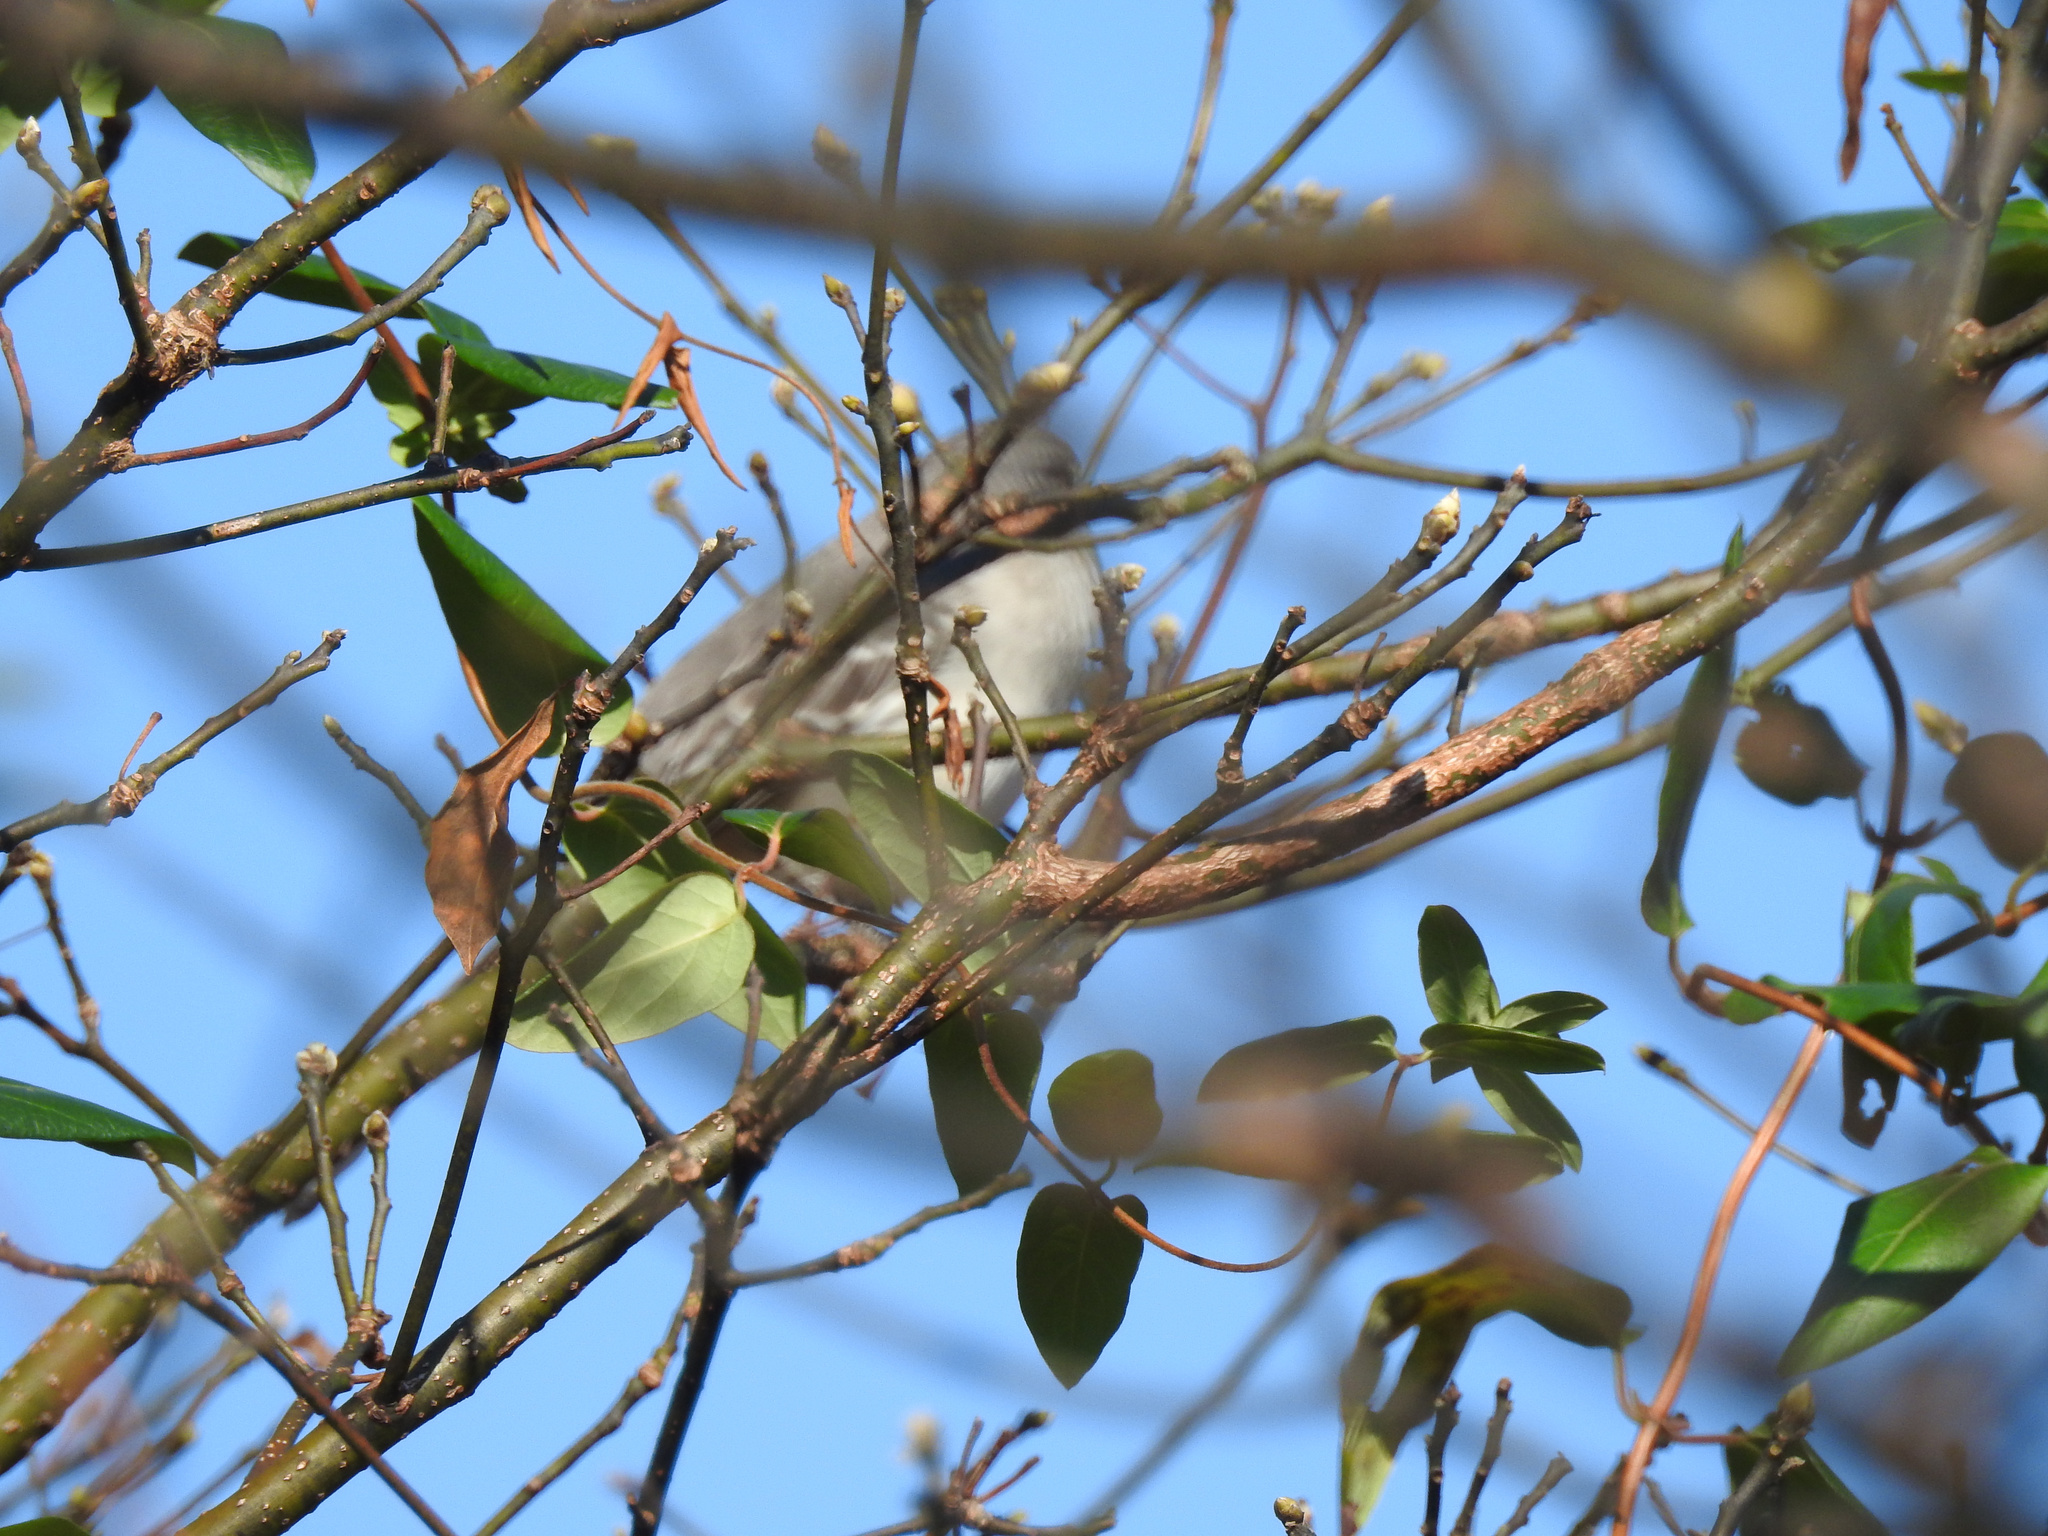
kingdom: Animalia
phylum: Chordata
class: Aves
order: Passeriformes
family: Mimidae
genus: Mimus
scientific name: Mimus polyglottos
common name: Northern mockingbird
